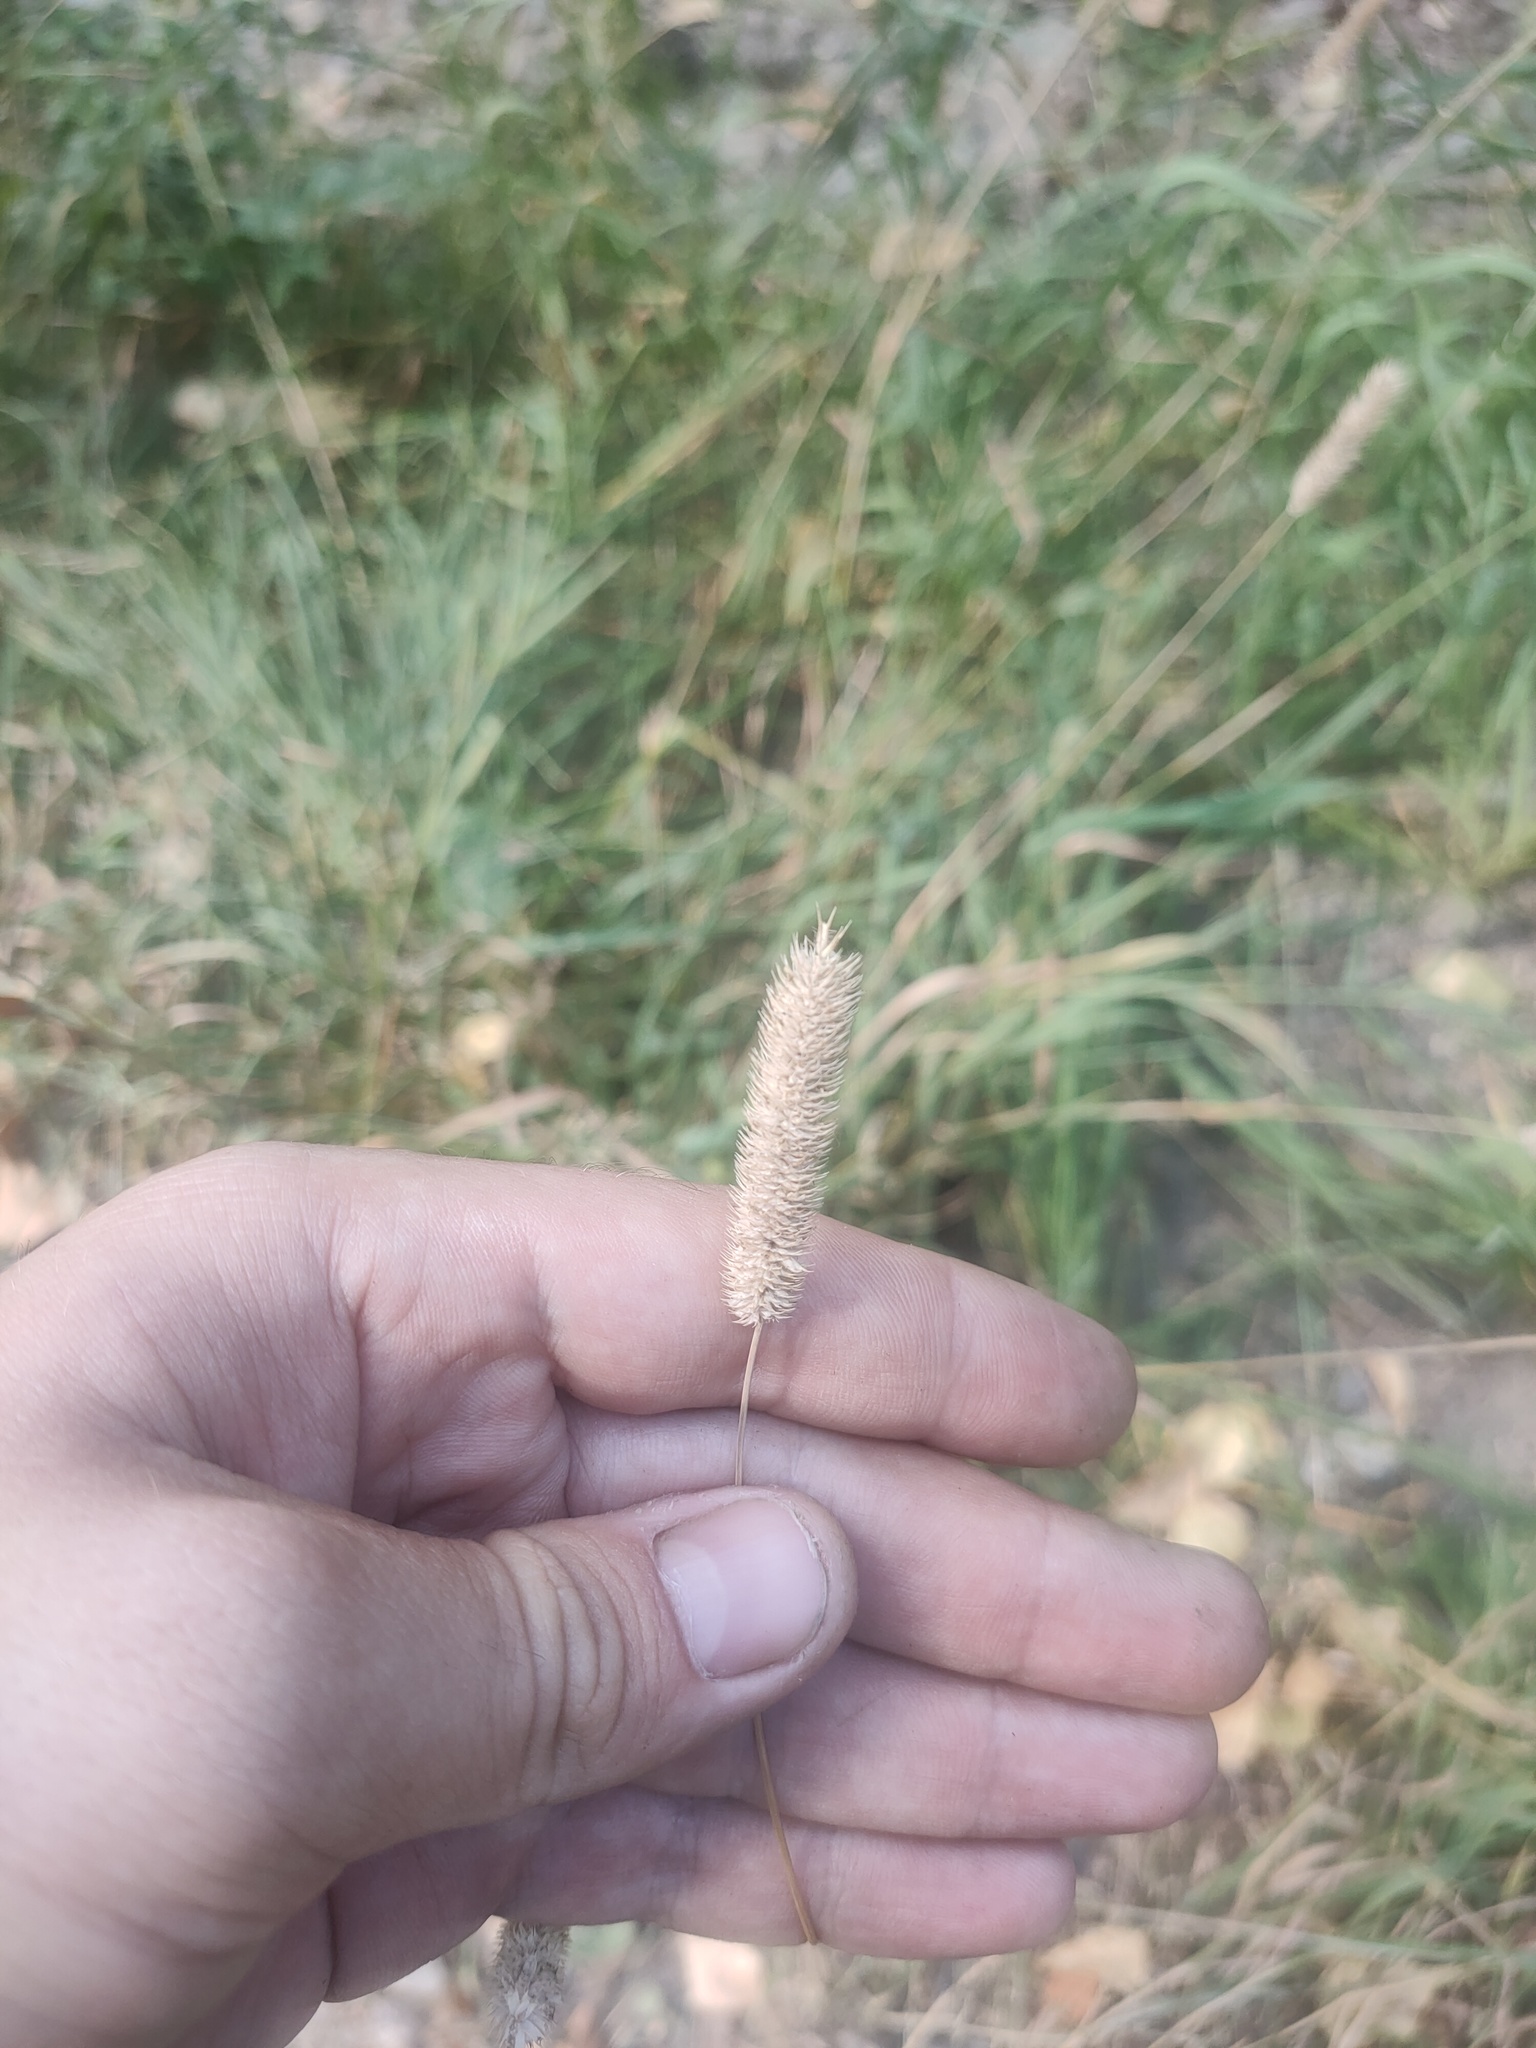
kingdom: Plantae
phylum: Tracheophyta
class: Liliopsida
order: Poales
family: Poaceae
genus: Phleum
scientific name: Phleum pratense
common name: Timothy grass
